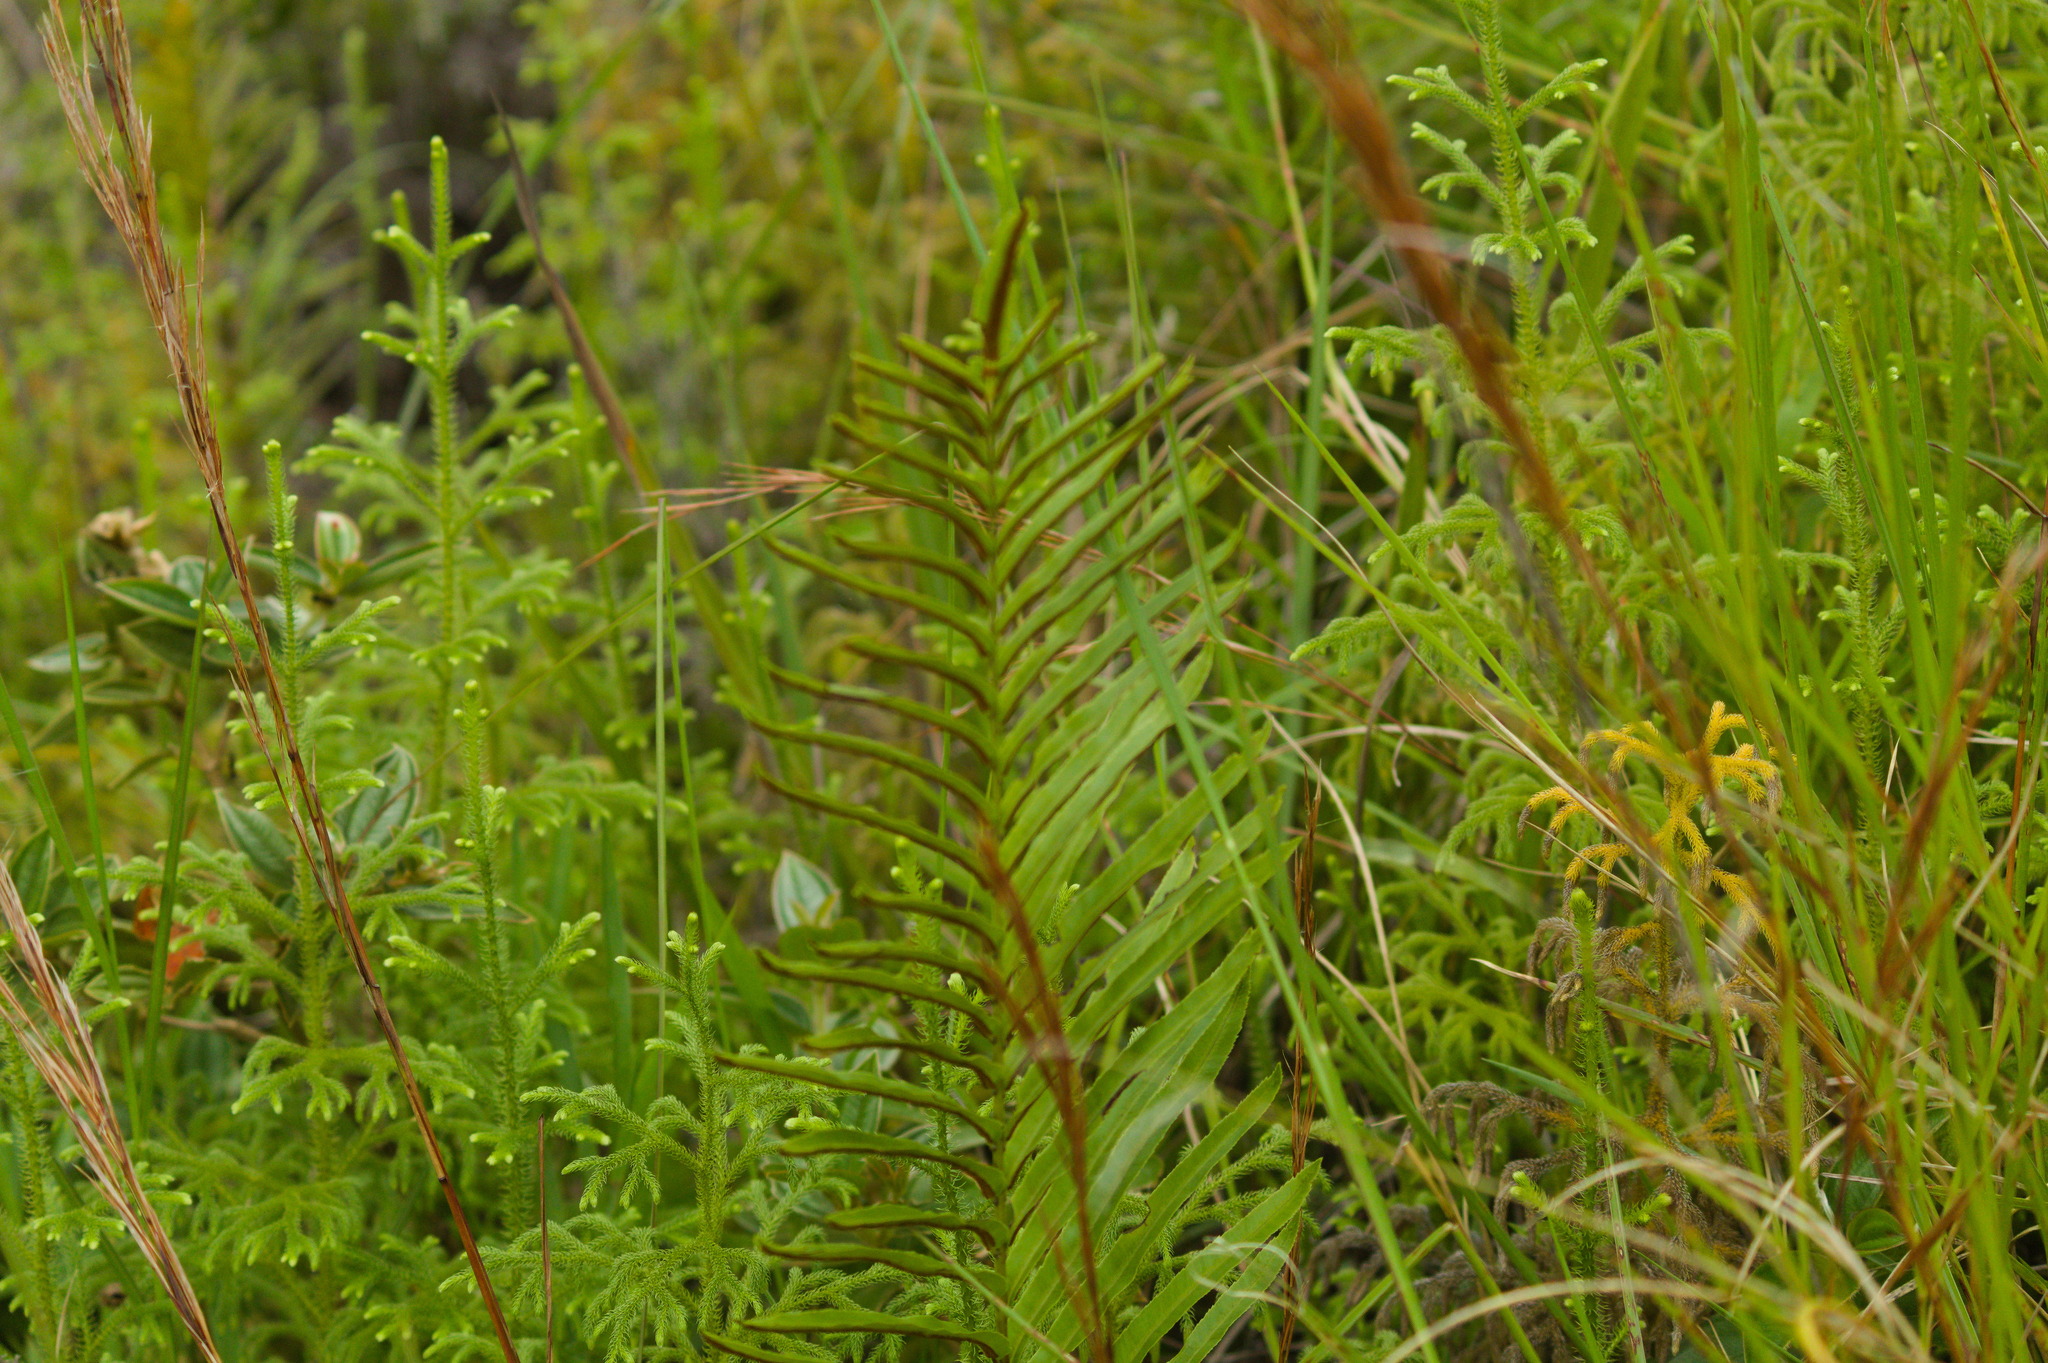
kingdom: Plantae
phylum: Tracheophyta
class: Polypodiopsida
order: Polypodiales
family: Blechnaceae
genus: Telmatoblechnum
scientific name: Telmatoblechnum serrulatum
